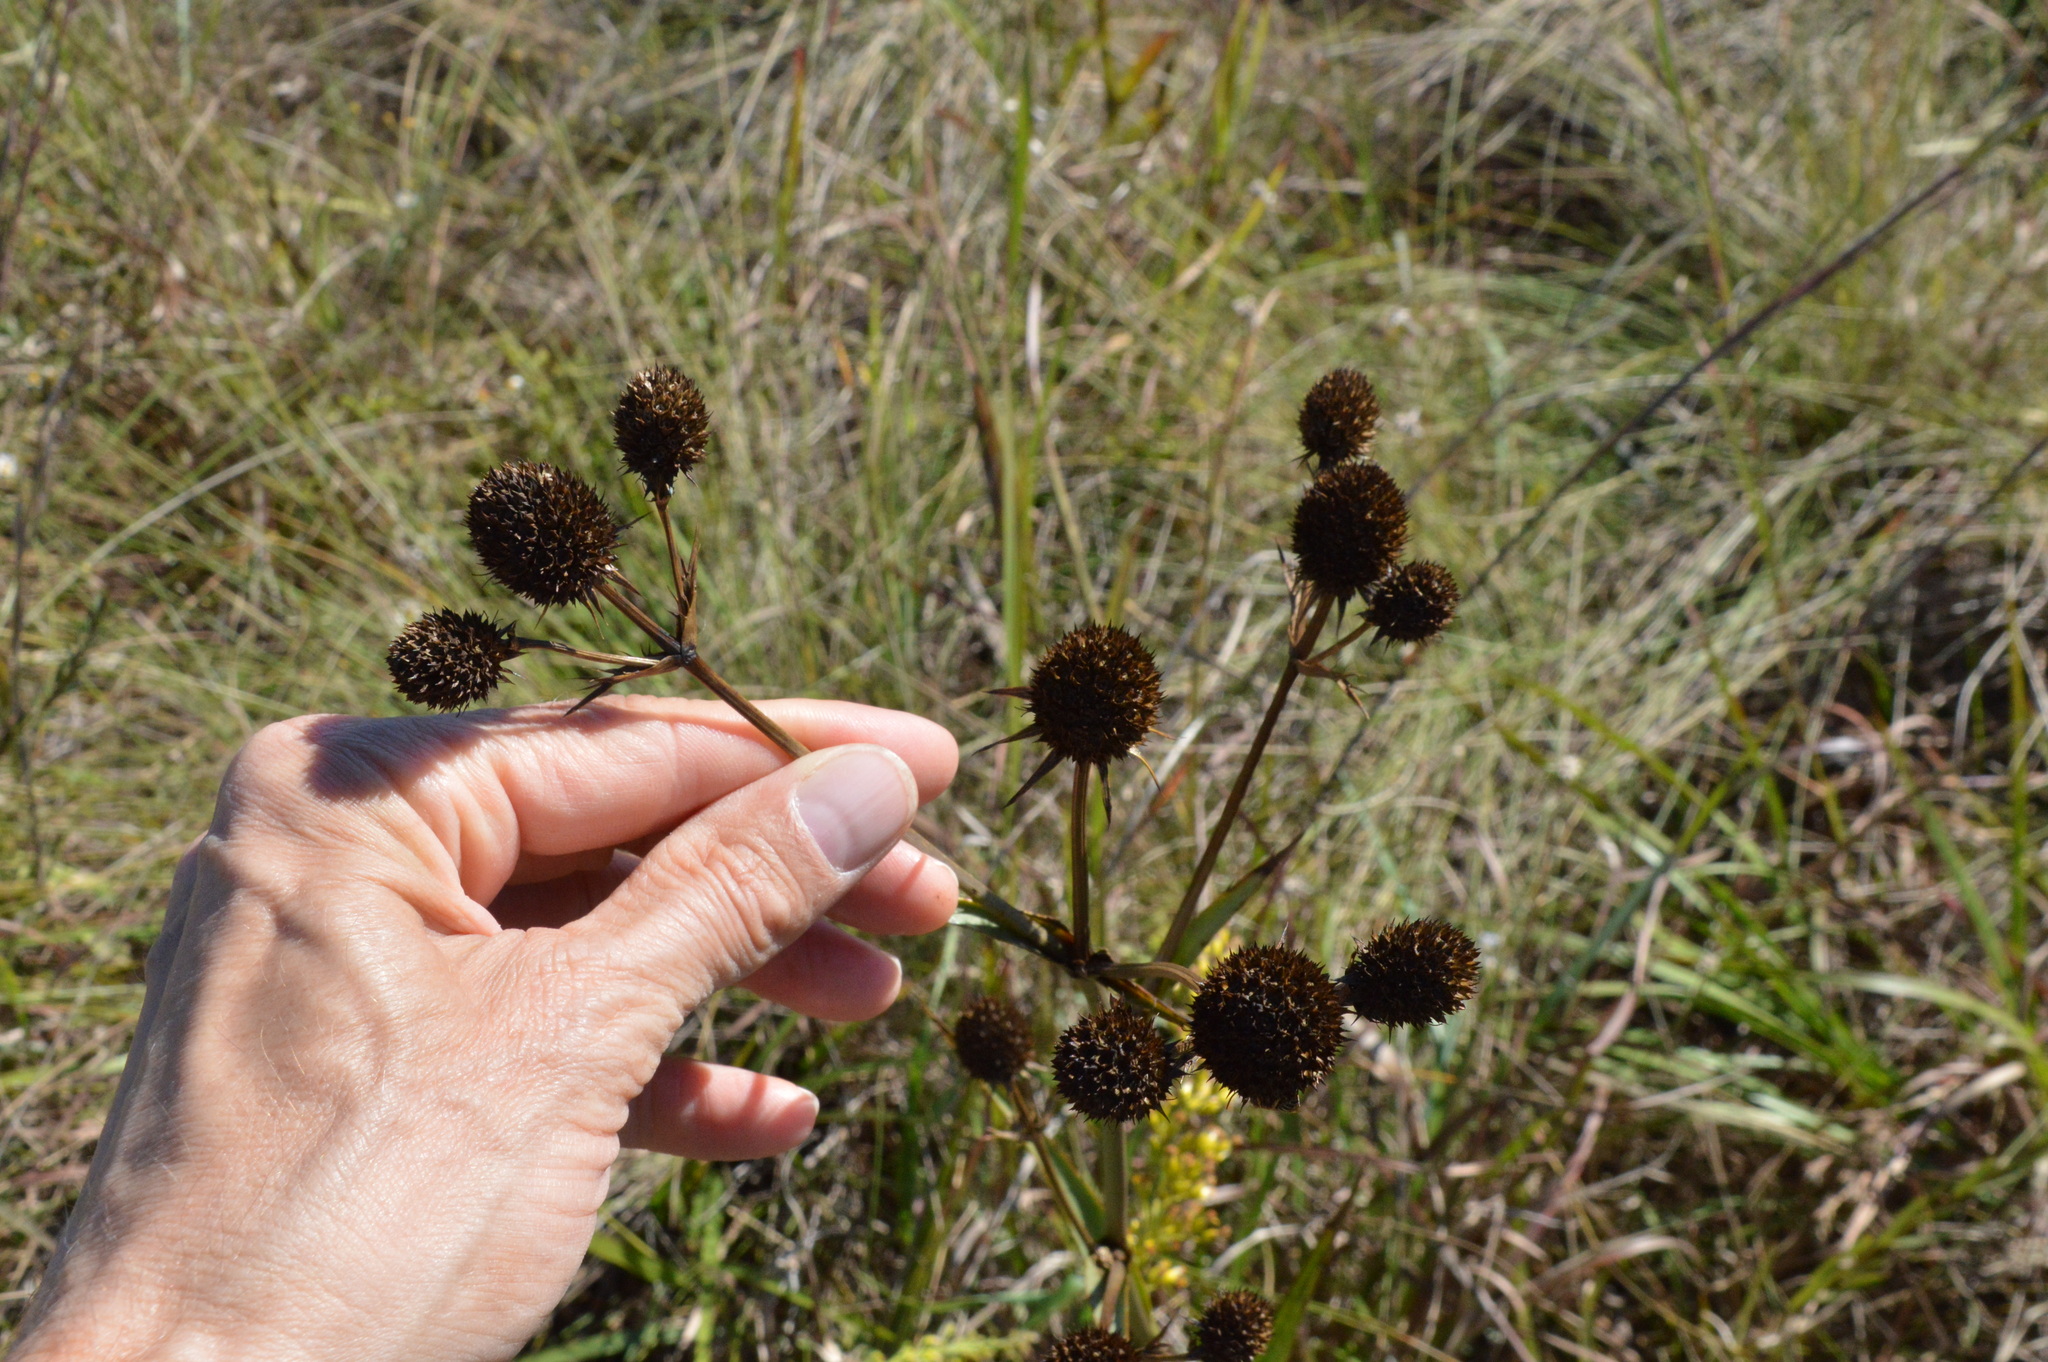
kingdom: Plantae
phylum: Tracheophyta
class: Magnoliopsida
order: Apiales
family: Apiaceae
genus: Eryngium
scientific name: Eryngium yuccifolium
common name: Button eryngo
